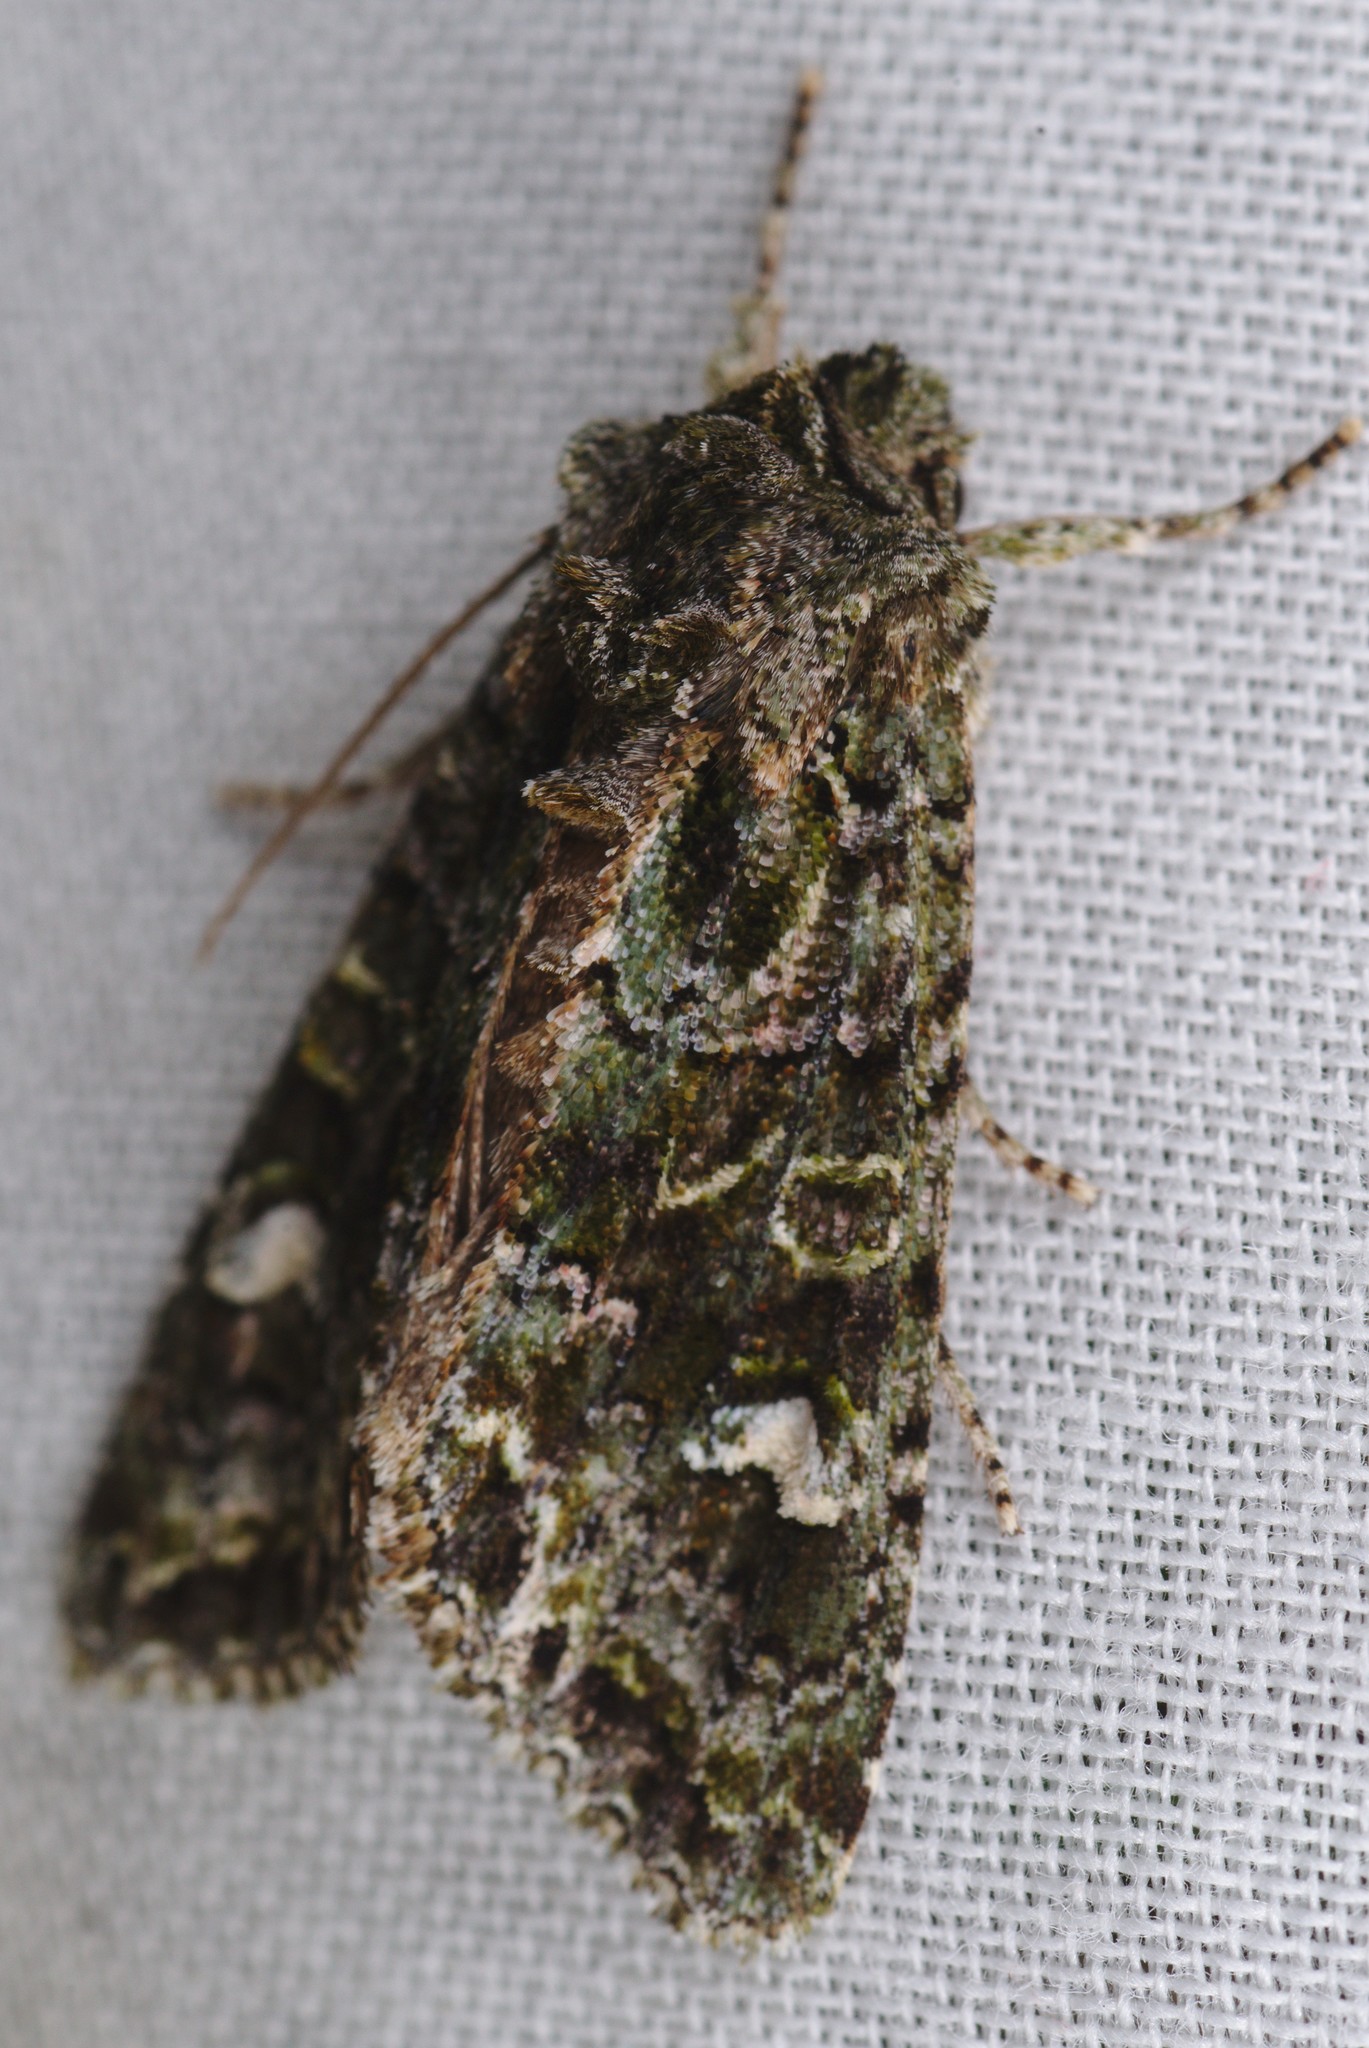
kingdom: Animalia
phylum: Arthropoda
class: Insecta
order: Lepidoptera
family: Noctuidae
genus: Ichneutica
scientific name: Ichneutica
